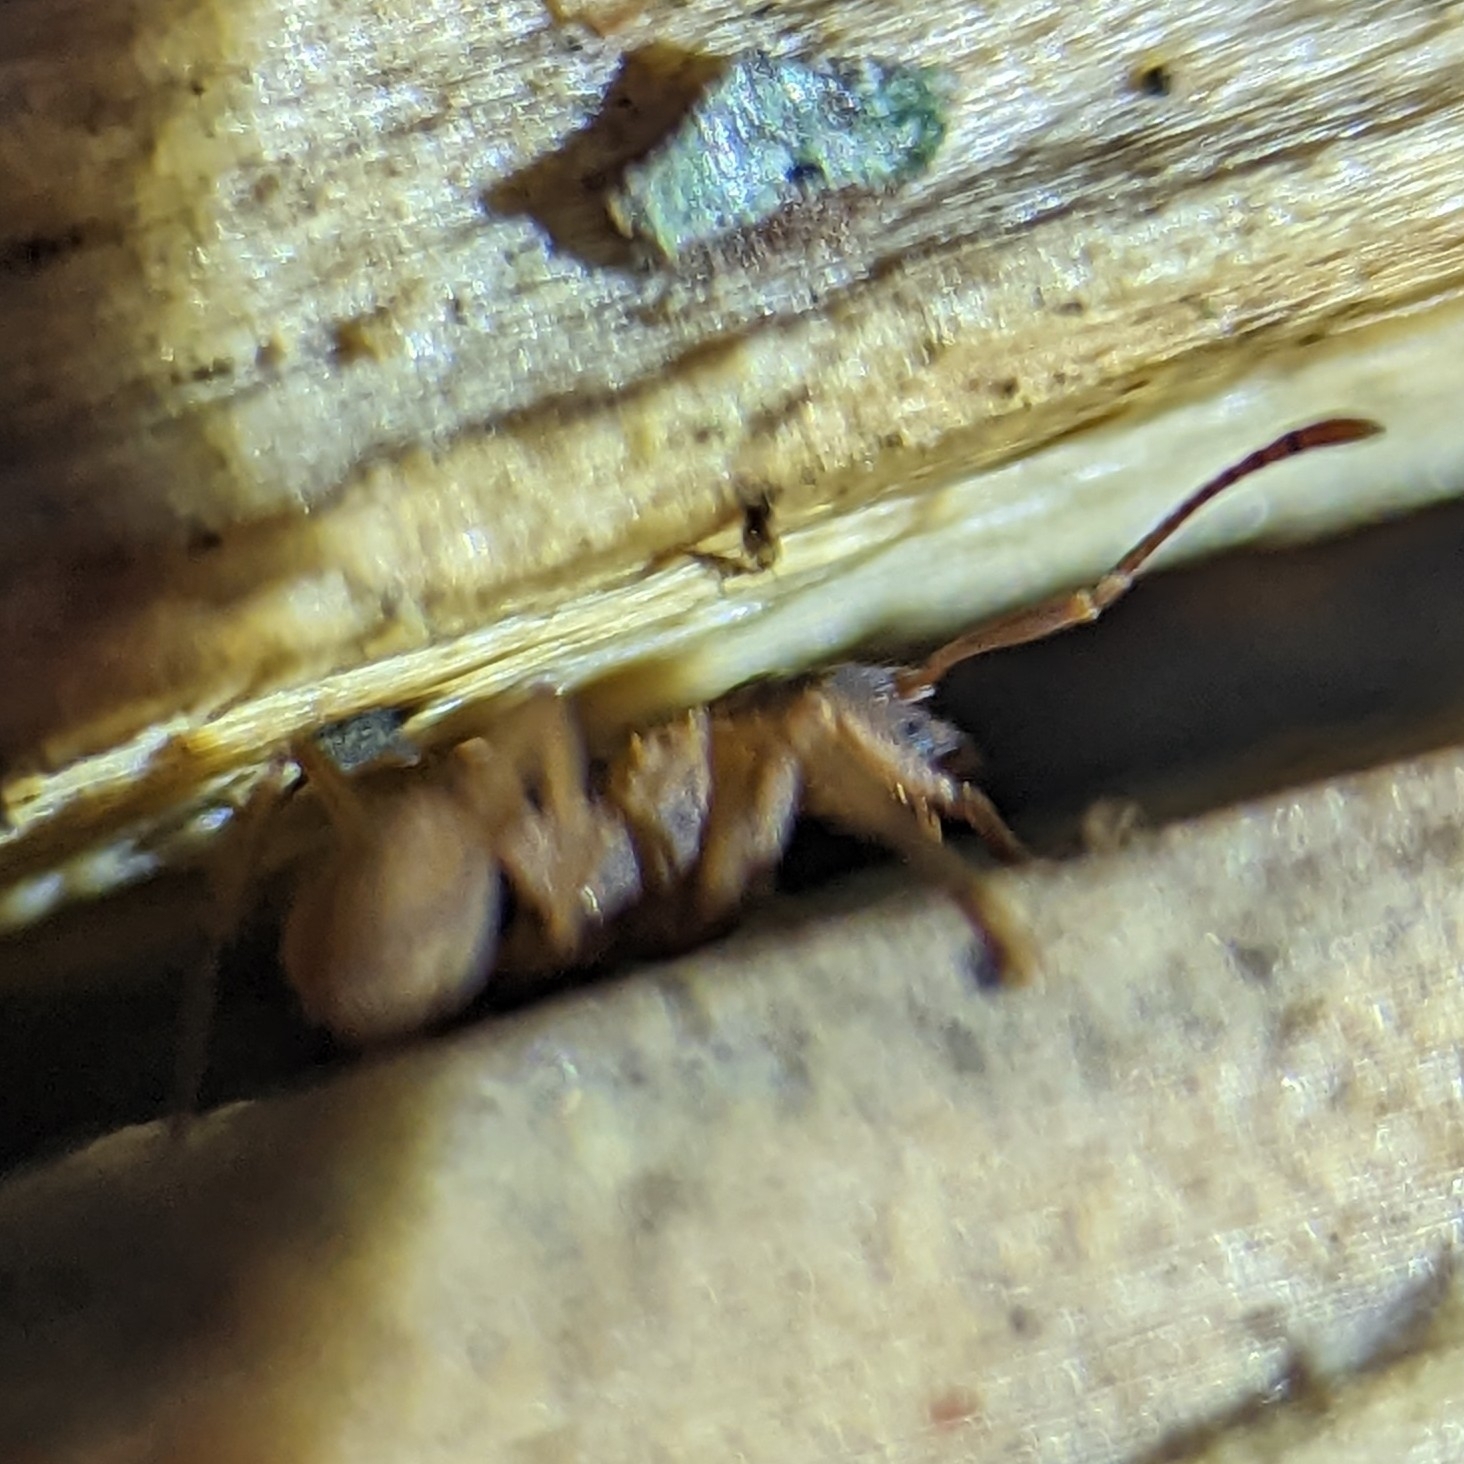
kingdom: Animalia
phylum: Arthropoda
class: Insecta
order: Hymenoptera
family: Formicidae
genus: Trachymyrmex
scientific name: Trachymyrmex septentrionalis
